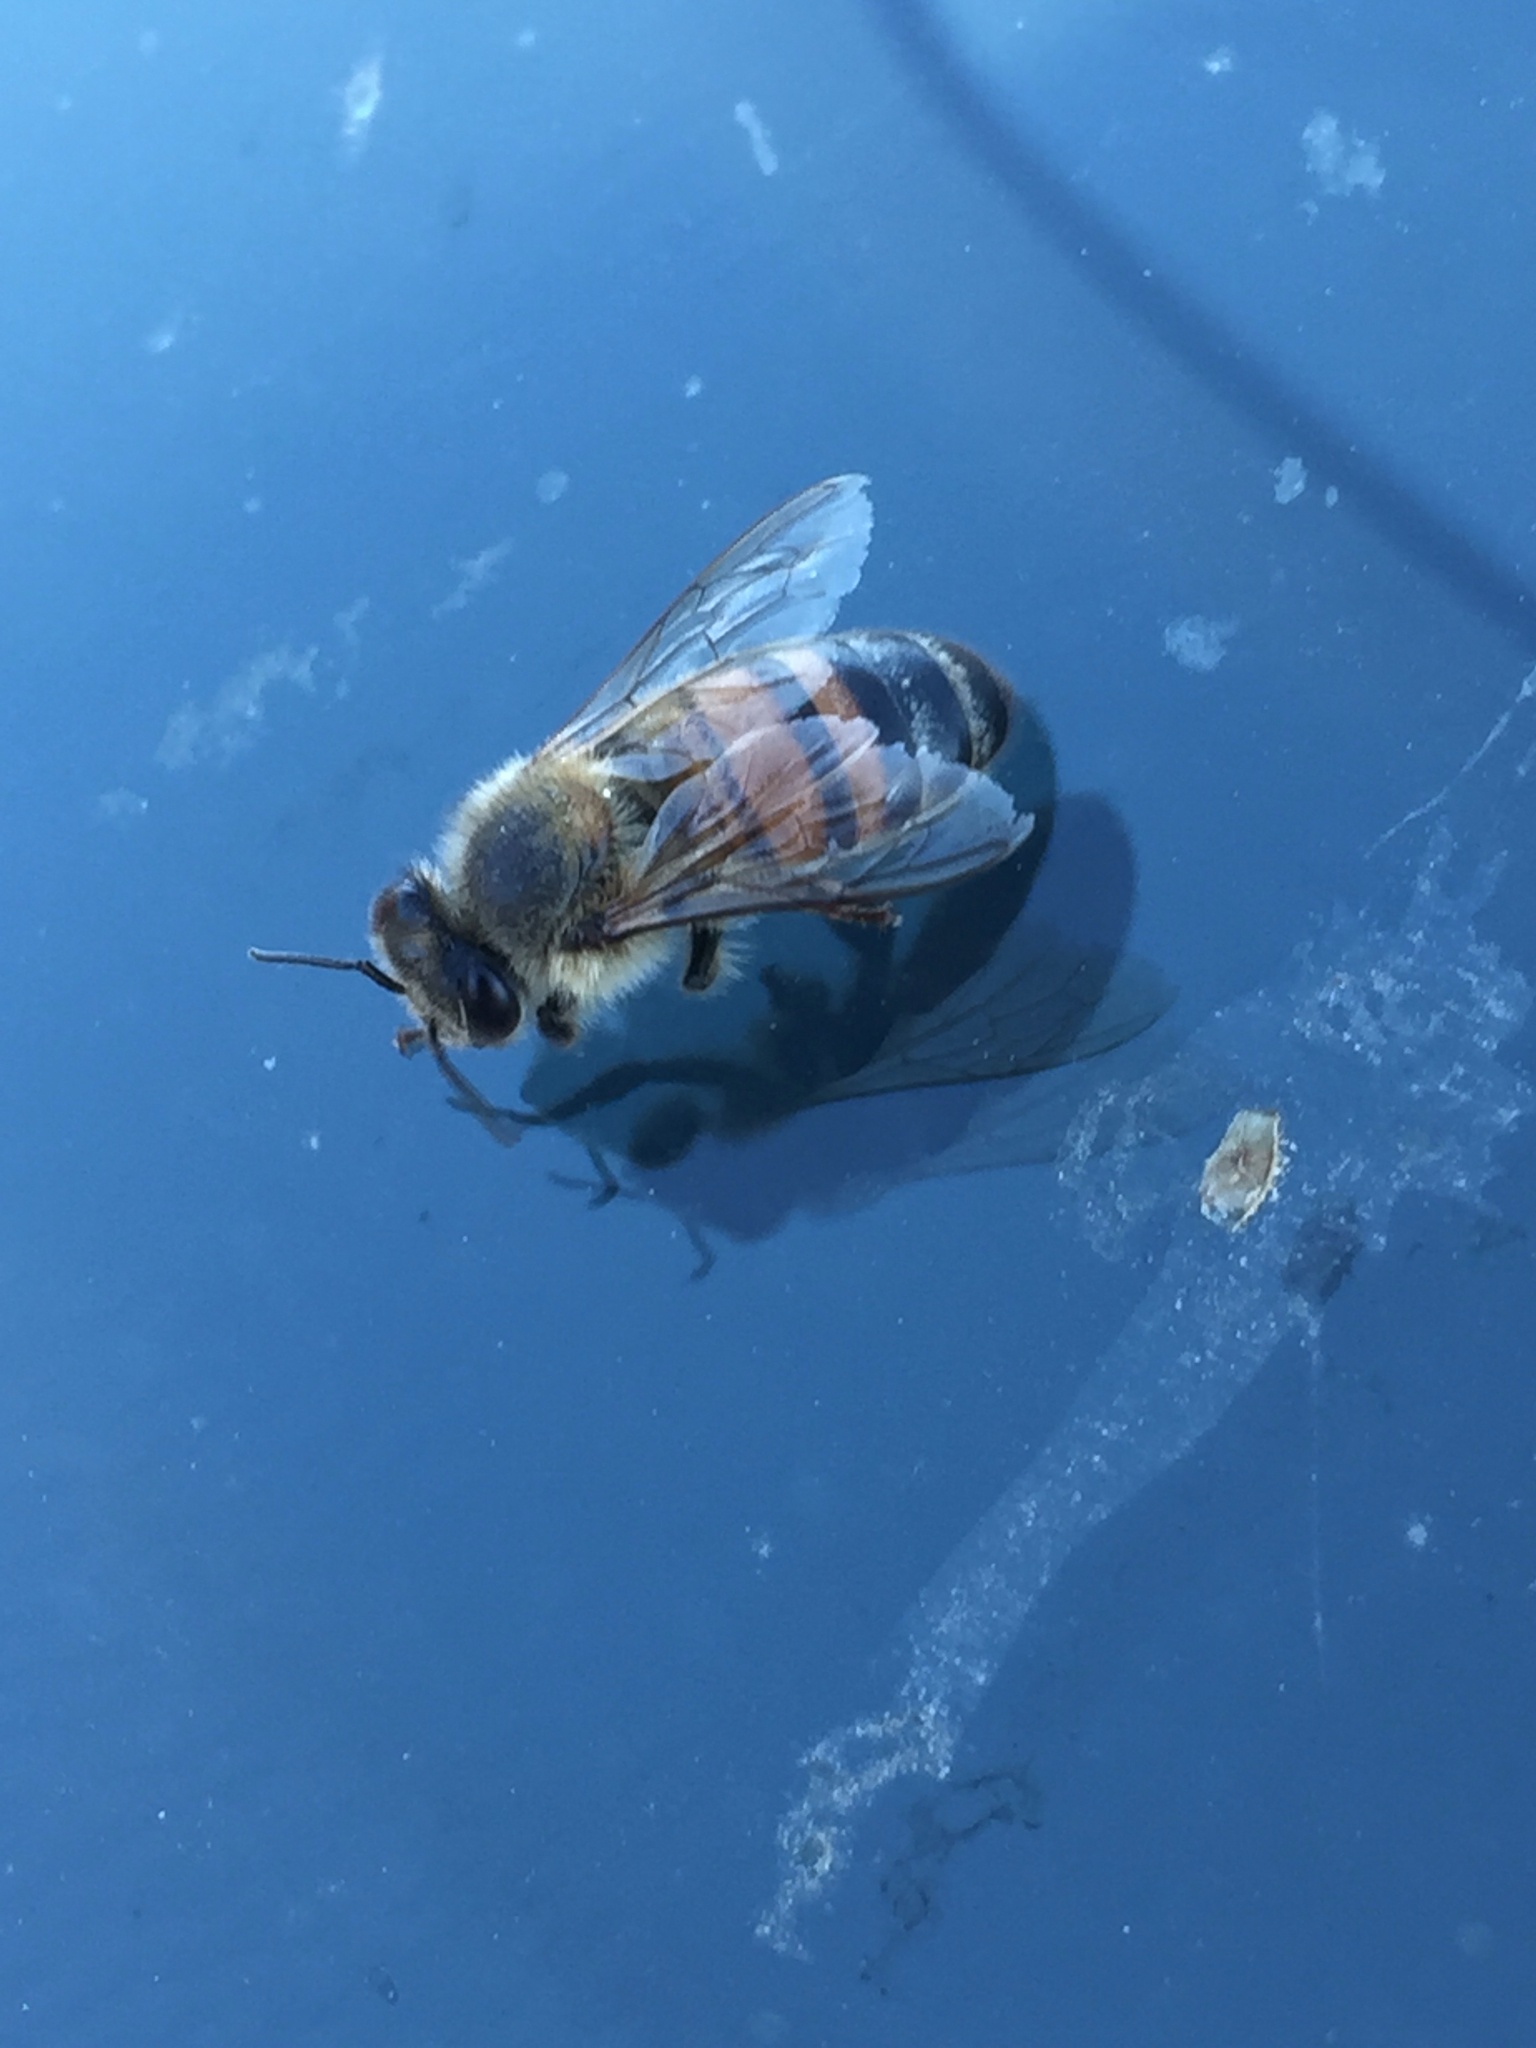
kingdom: Animalia
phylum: Arthropoda
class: Insecta
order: Hymenoptera
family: Apidae
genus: Apis
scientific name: Apis mellifera
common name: Honey bee
